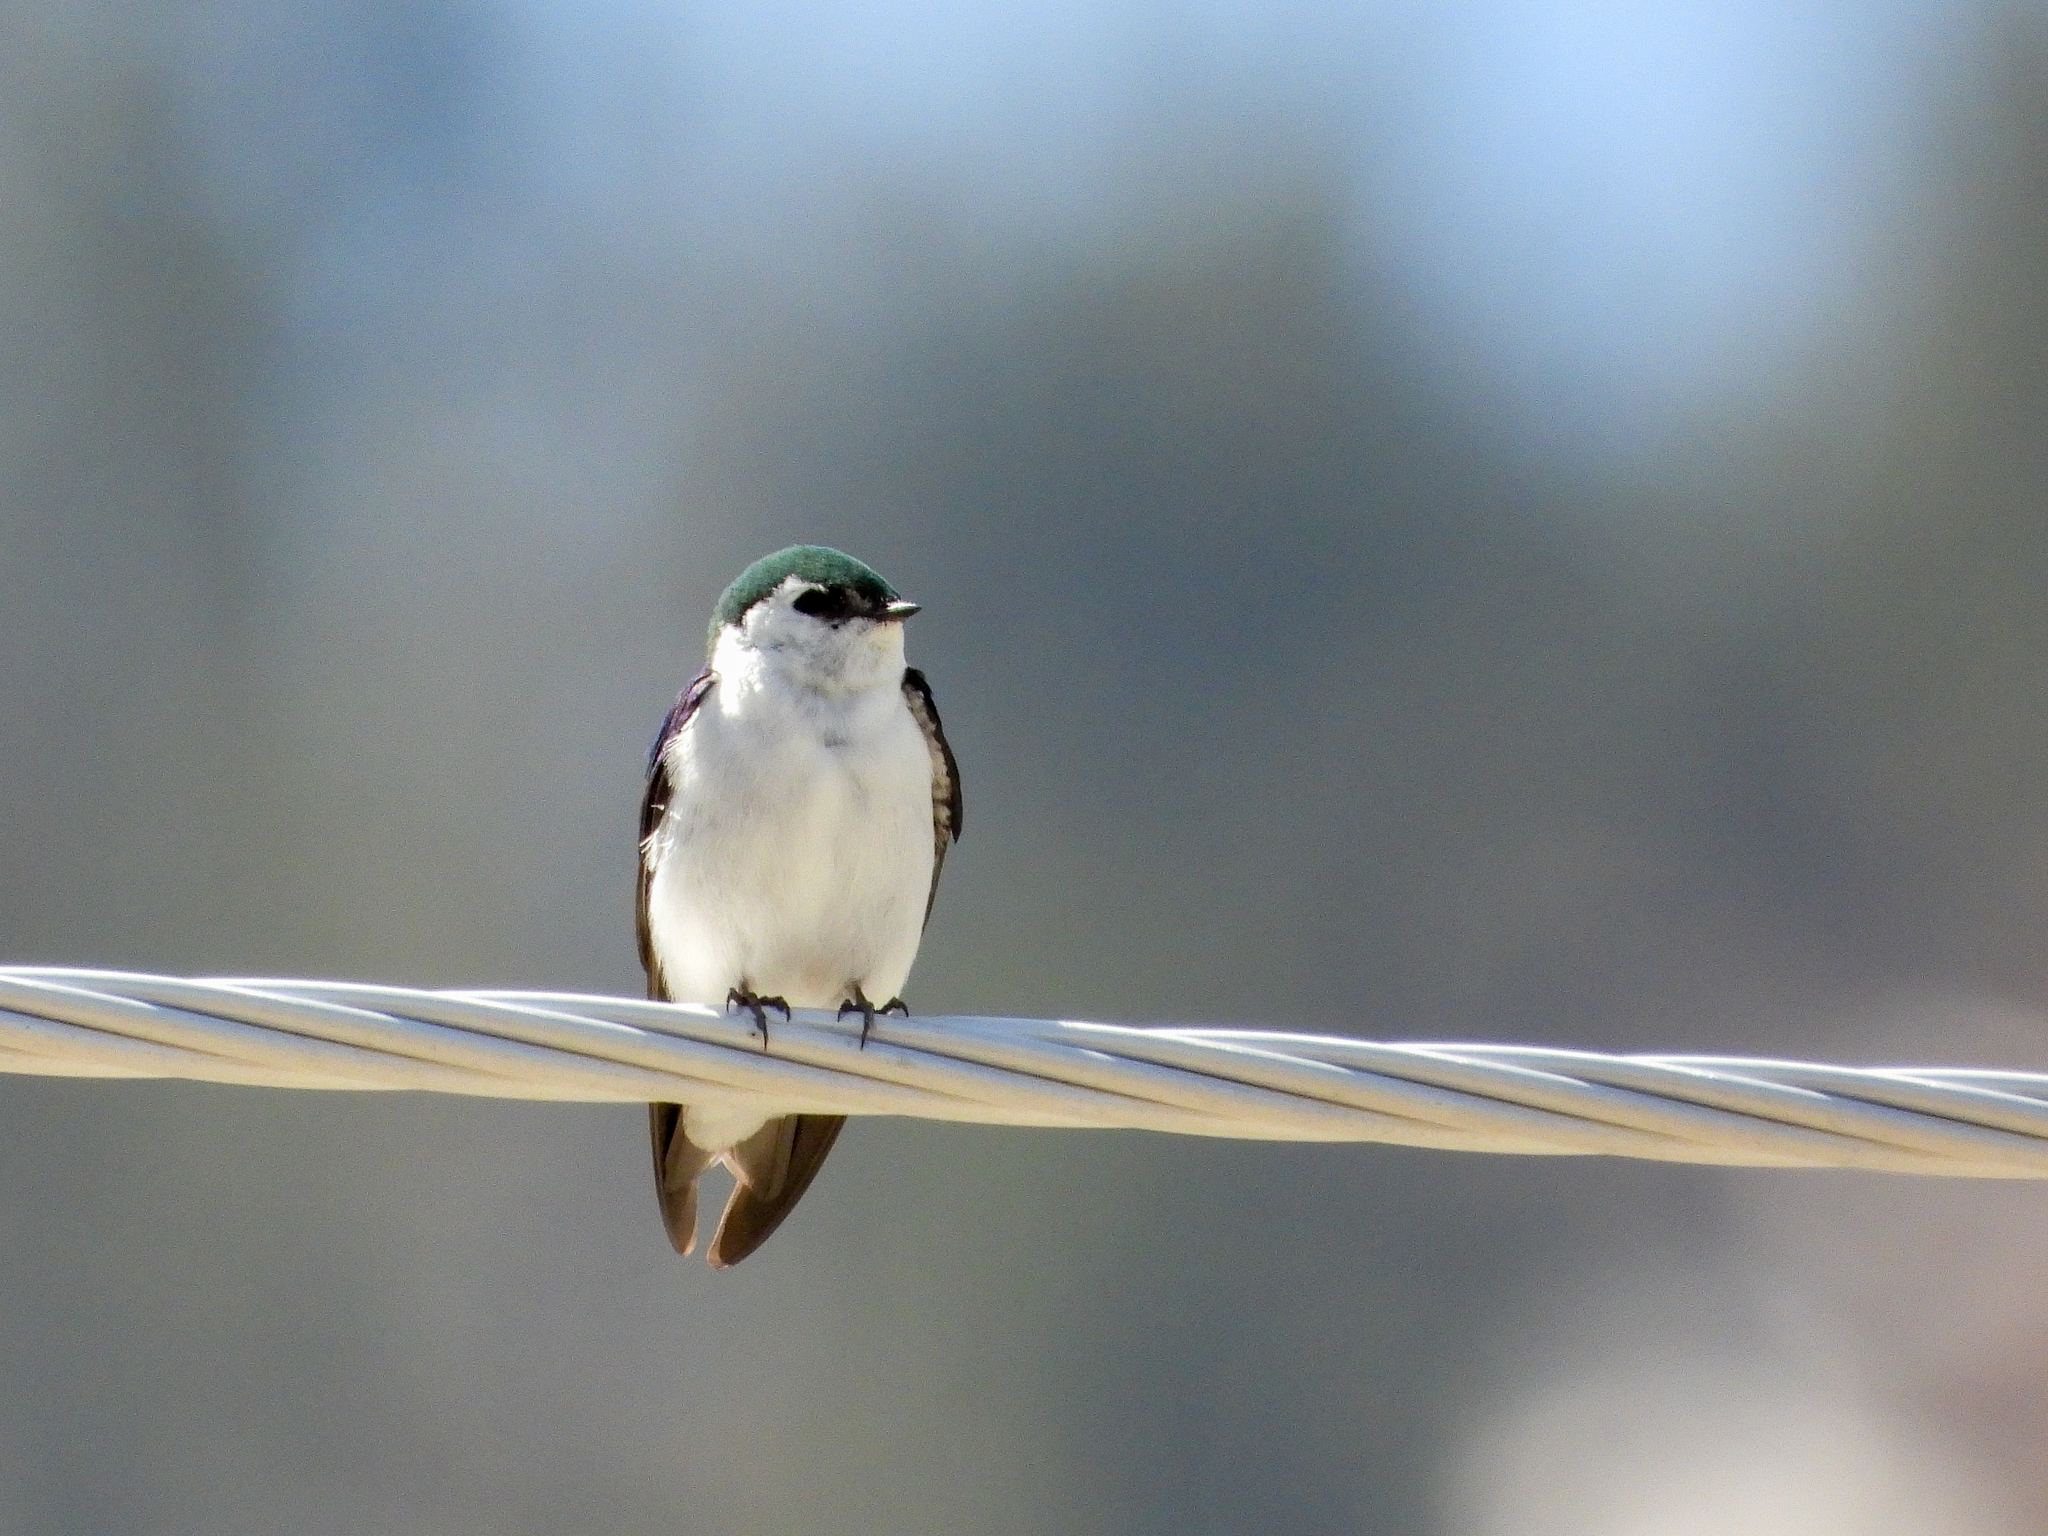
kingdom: Animalia
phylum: Chordata
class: Aves
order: Passeriformes
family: Hirundinidae
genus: Tachycineta
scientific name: Tachycineta thalassina
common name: Violet-green swallow
